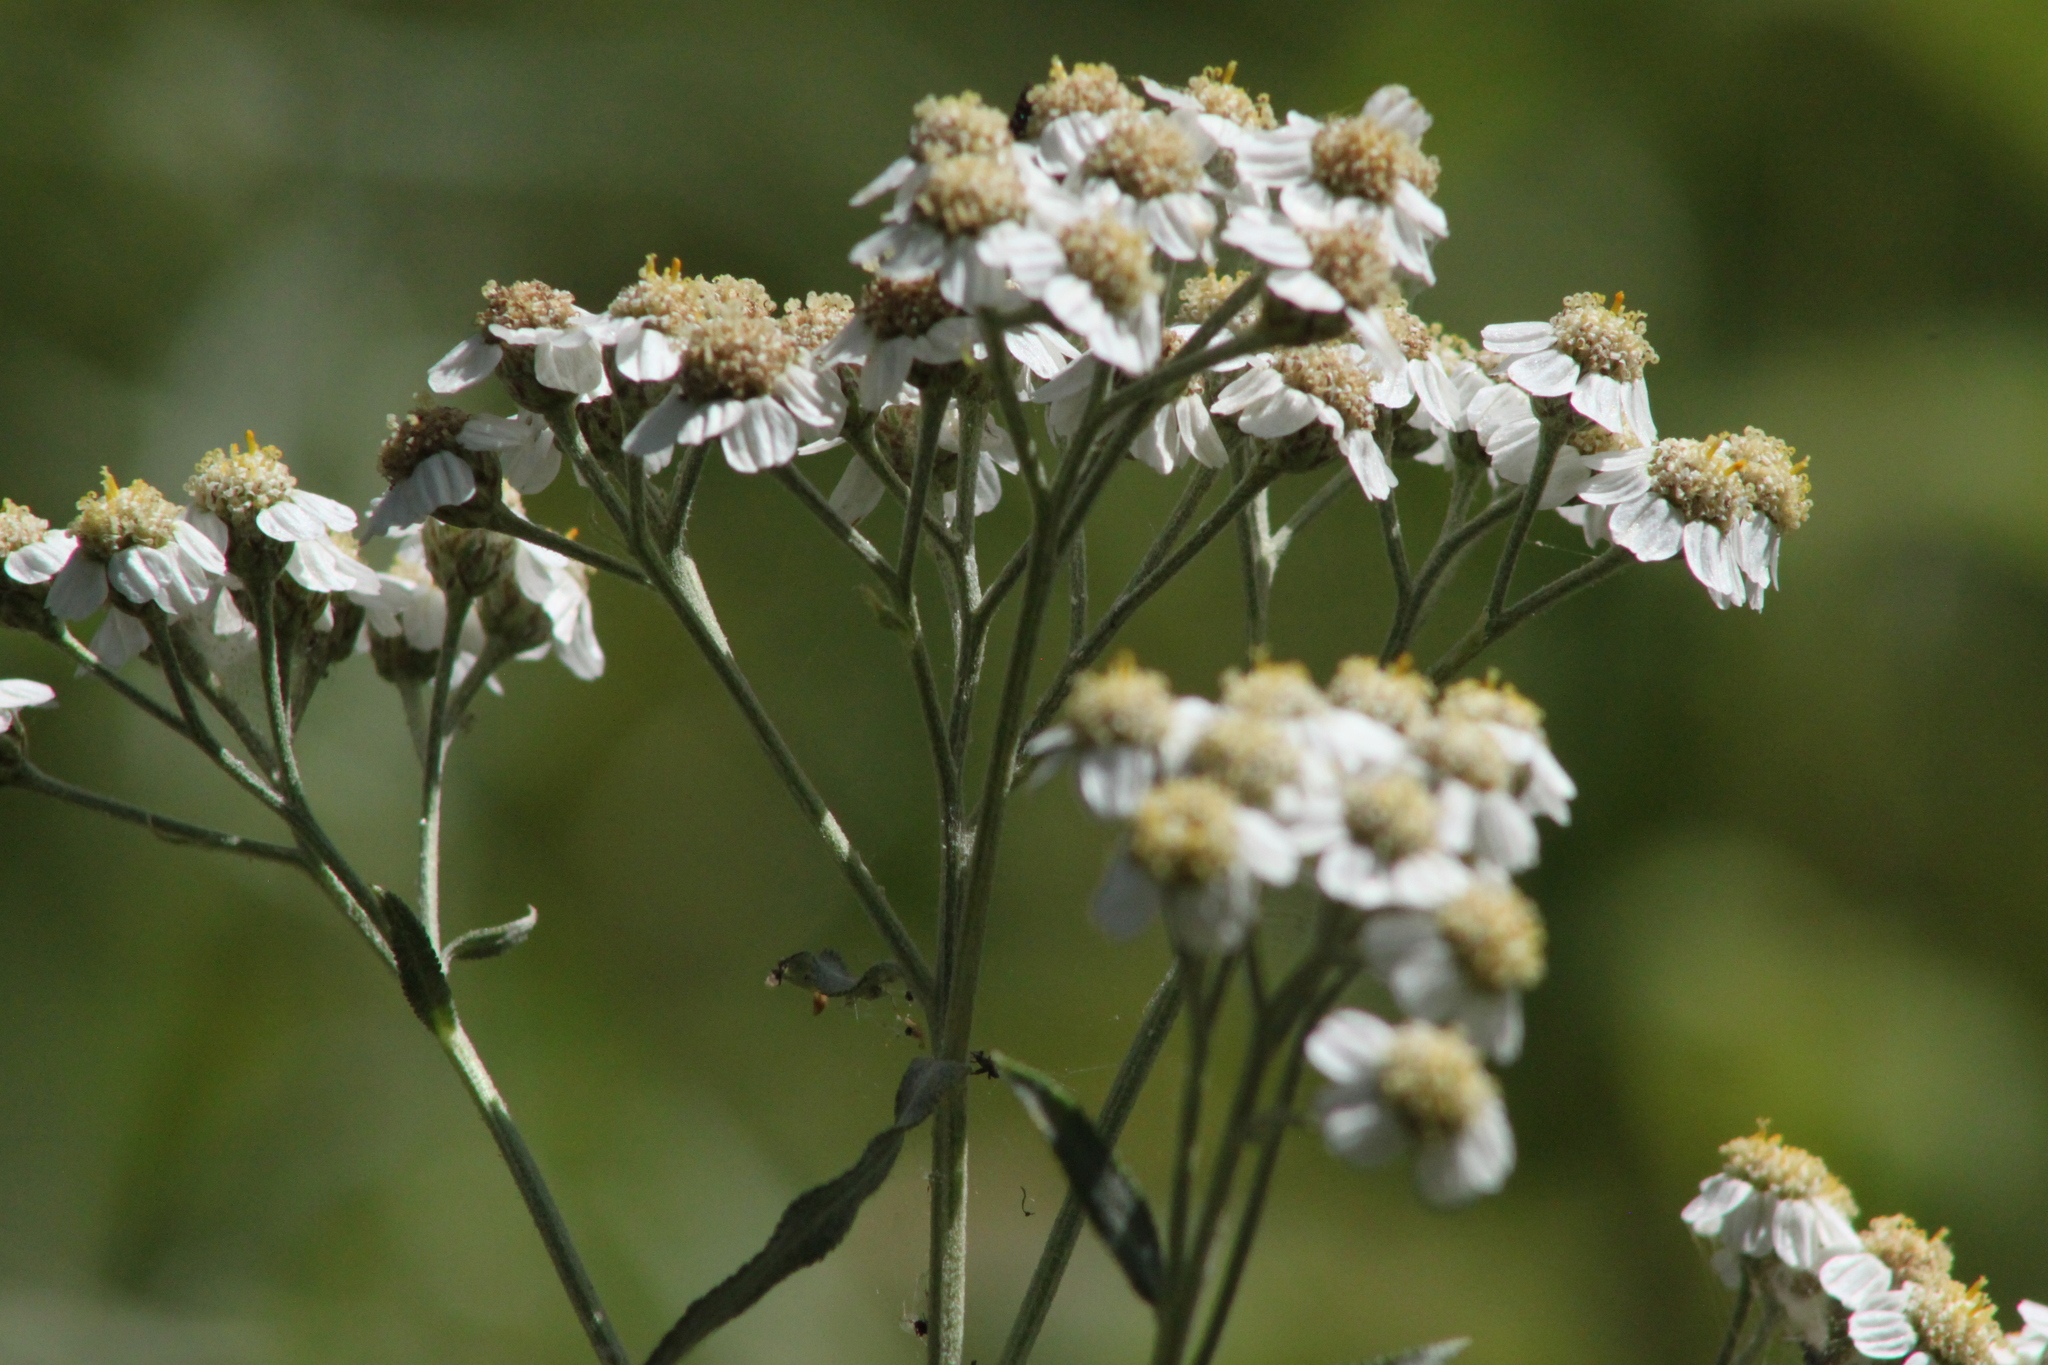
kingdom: Plantae
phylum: Tracheophyta
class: Magnoliopsida
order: Asterales
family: Asteraceae
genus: Achillea
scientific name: Achillea ptarmica
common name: Sneezeweed
